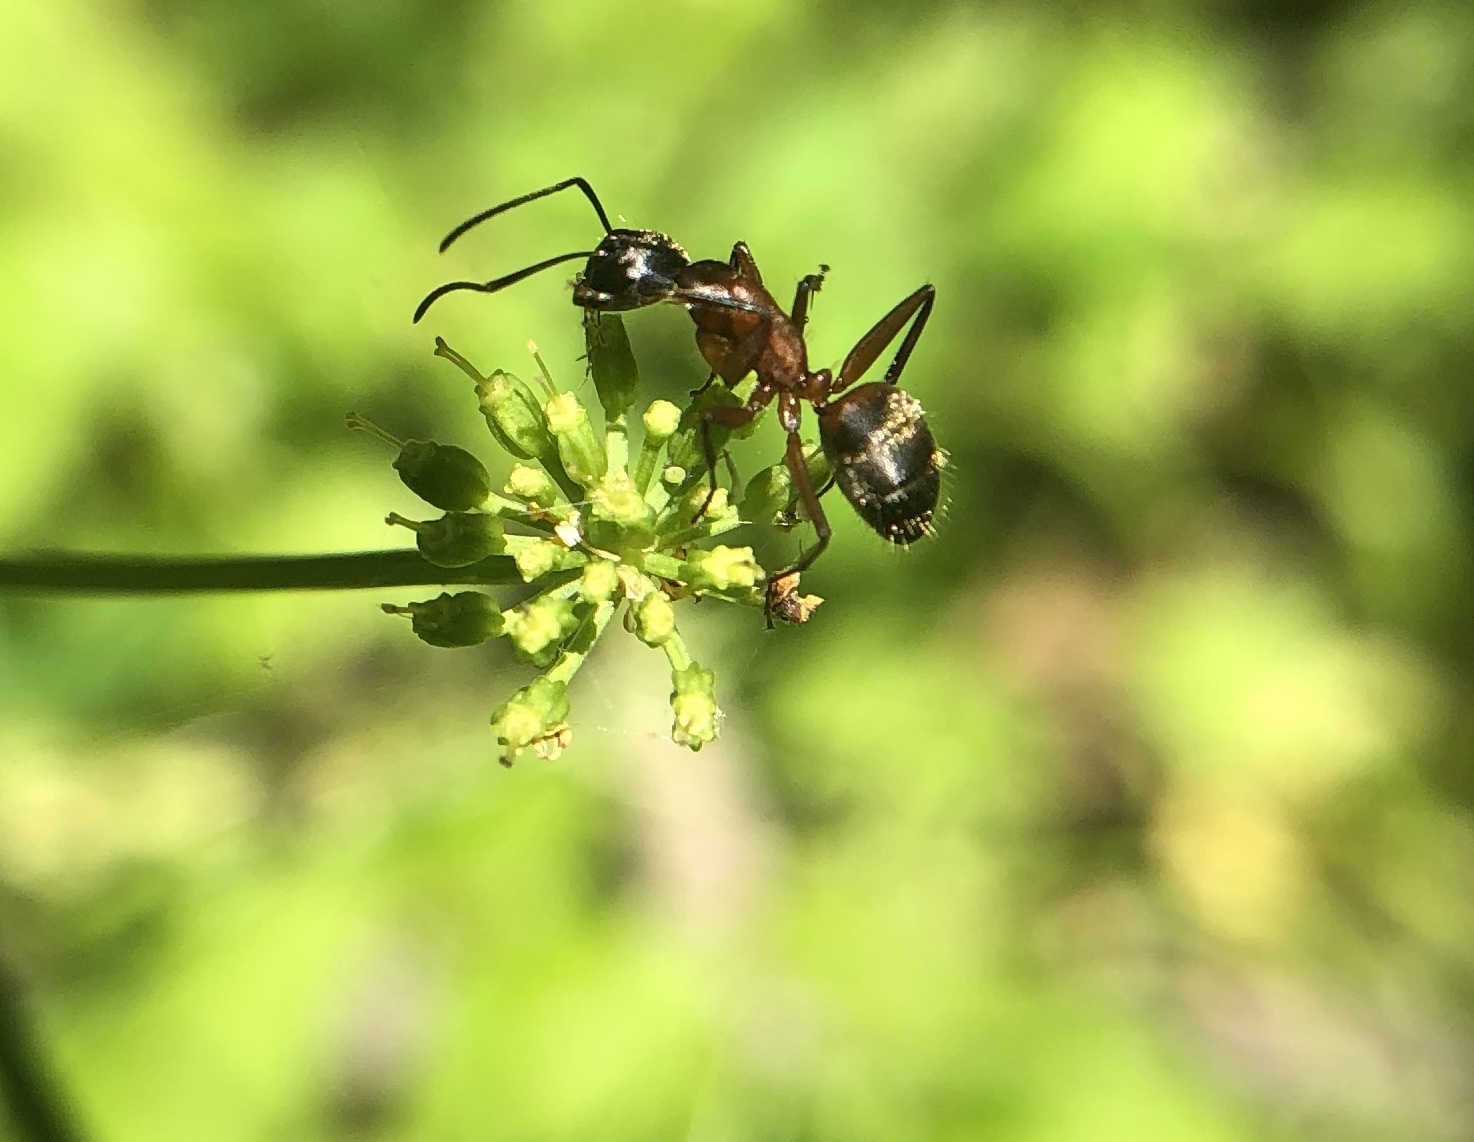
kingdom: Animalia
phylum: Arthropoda
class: Insecta
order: Hymenoptera
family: Formicidae
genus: Camponotus
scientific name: Camponotus chromaiodes
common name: Red carpenter ant
